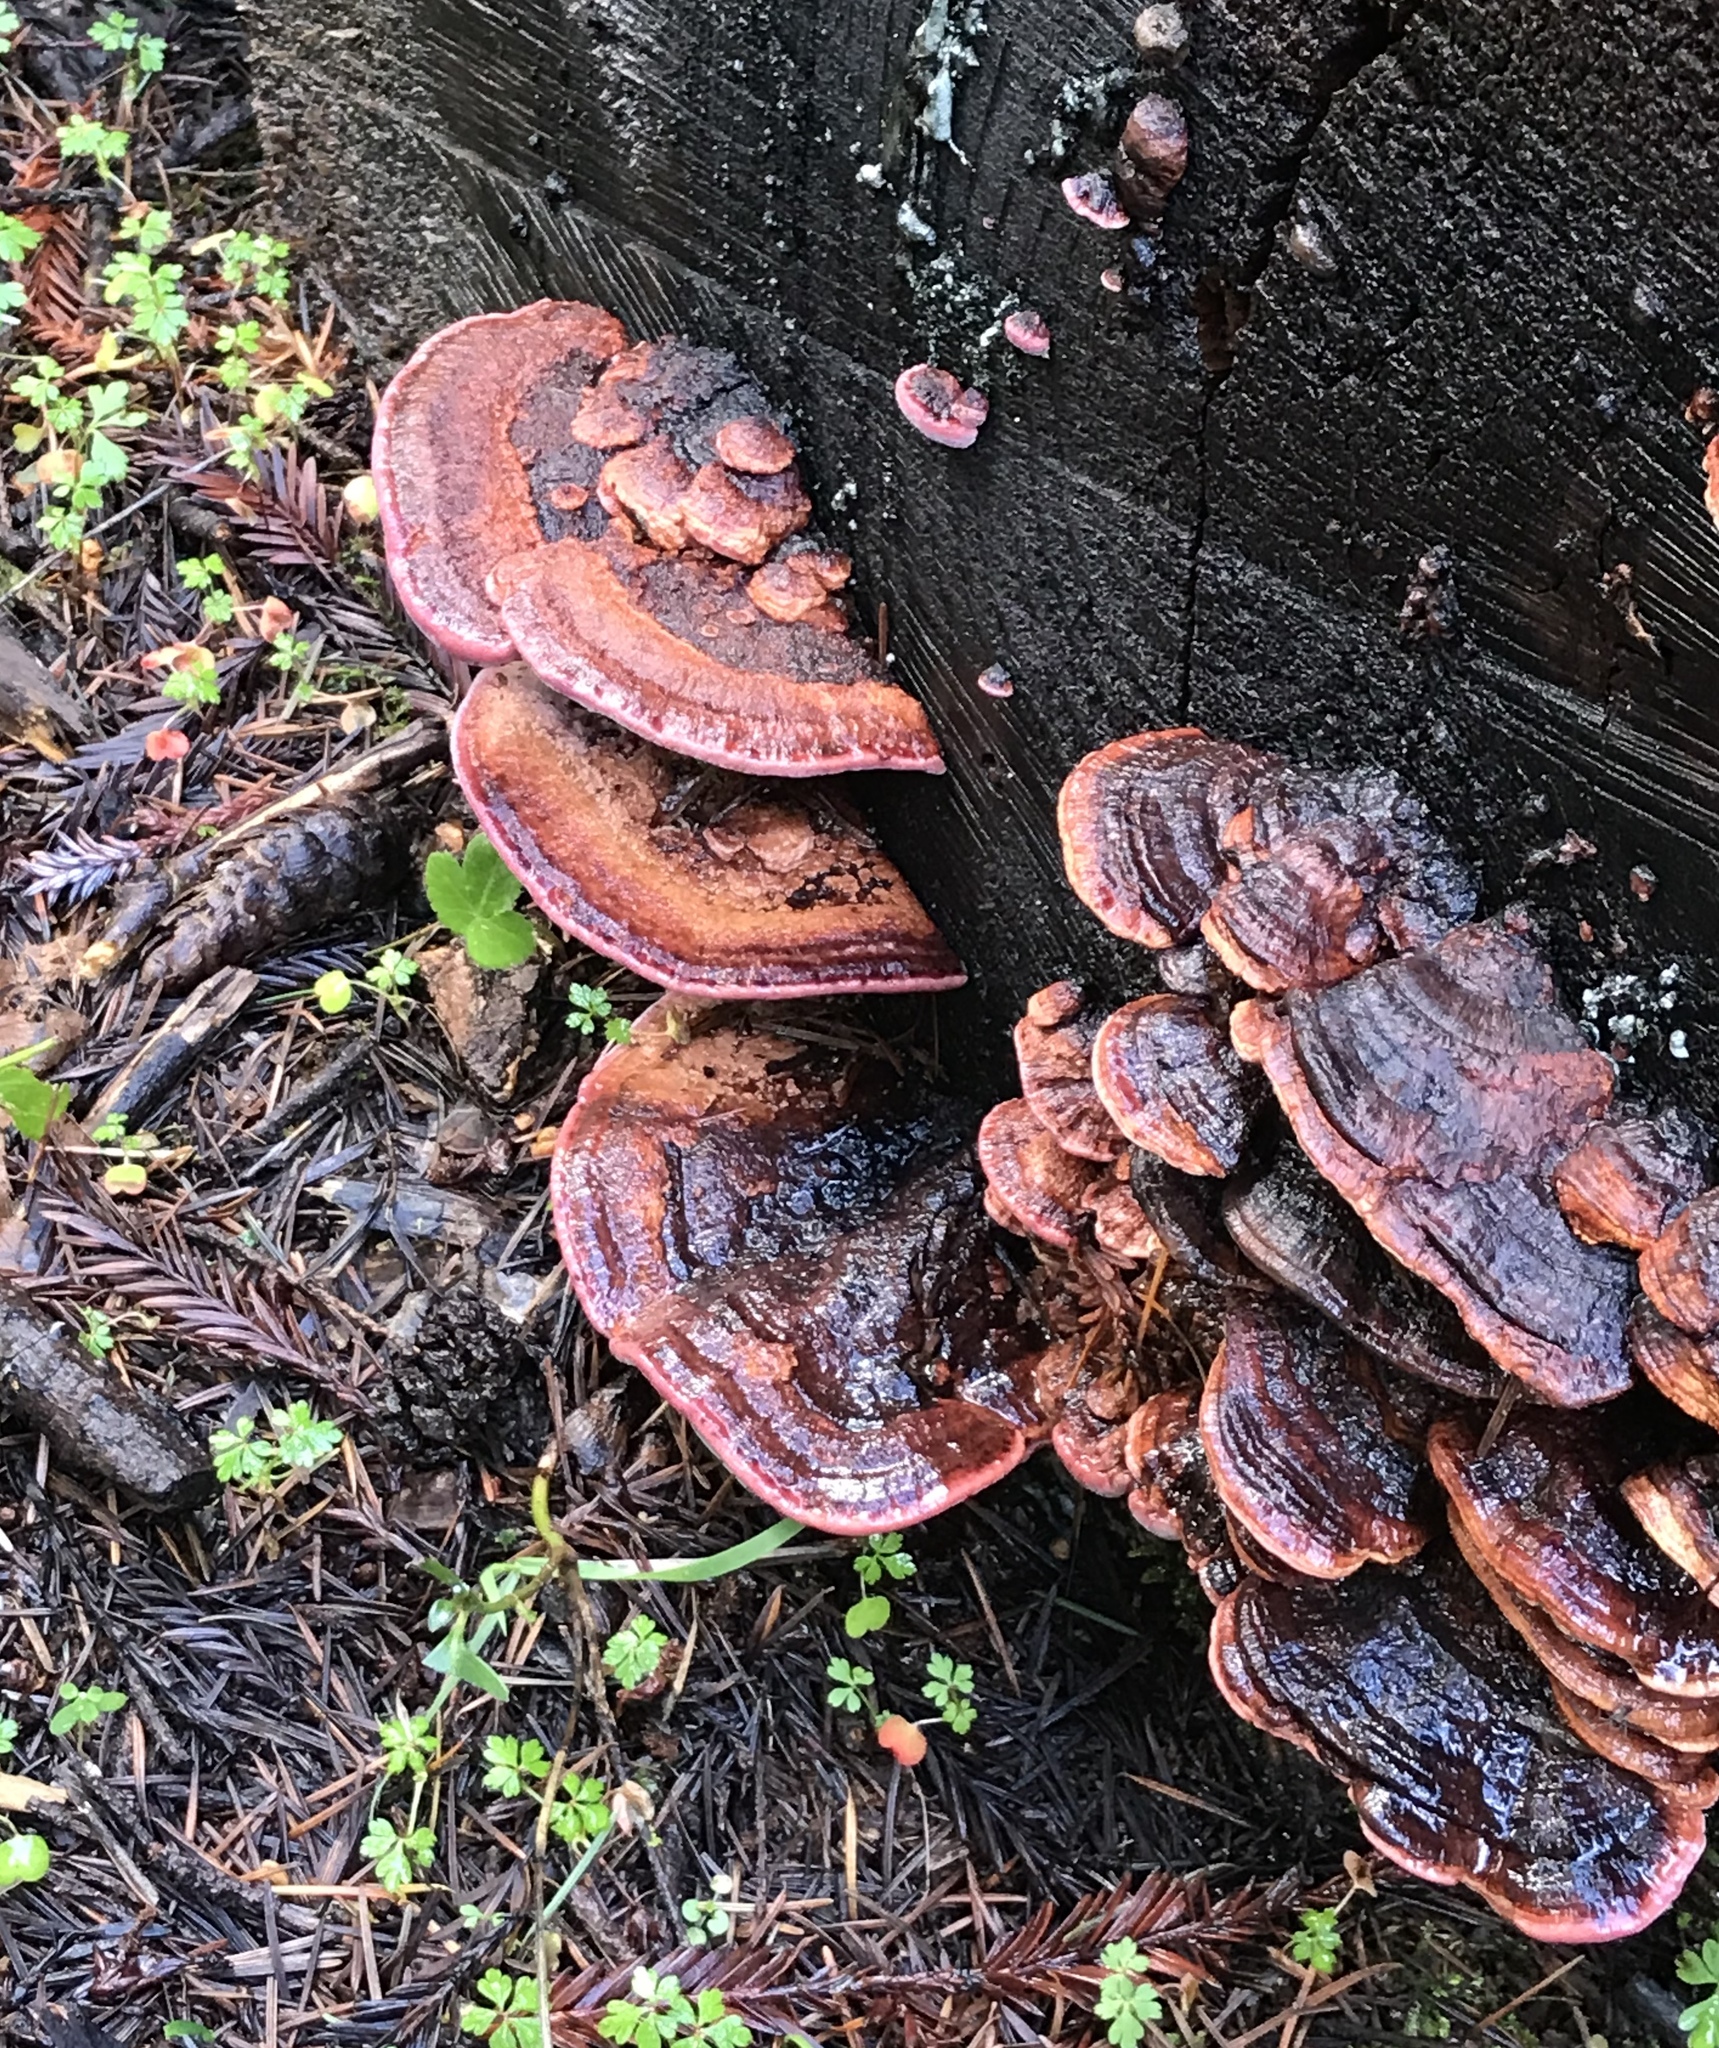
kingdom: Fungi
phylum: Basidiomycota
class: Agaricomycetes
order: Polyporales
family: Fomitopsidaceae
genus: Rhodofomes
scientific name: Rhodofomes cajanderi
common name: Rosy conk
